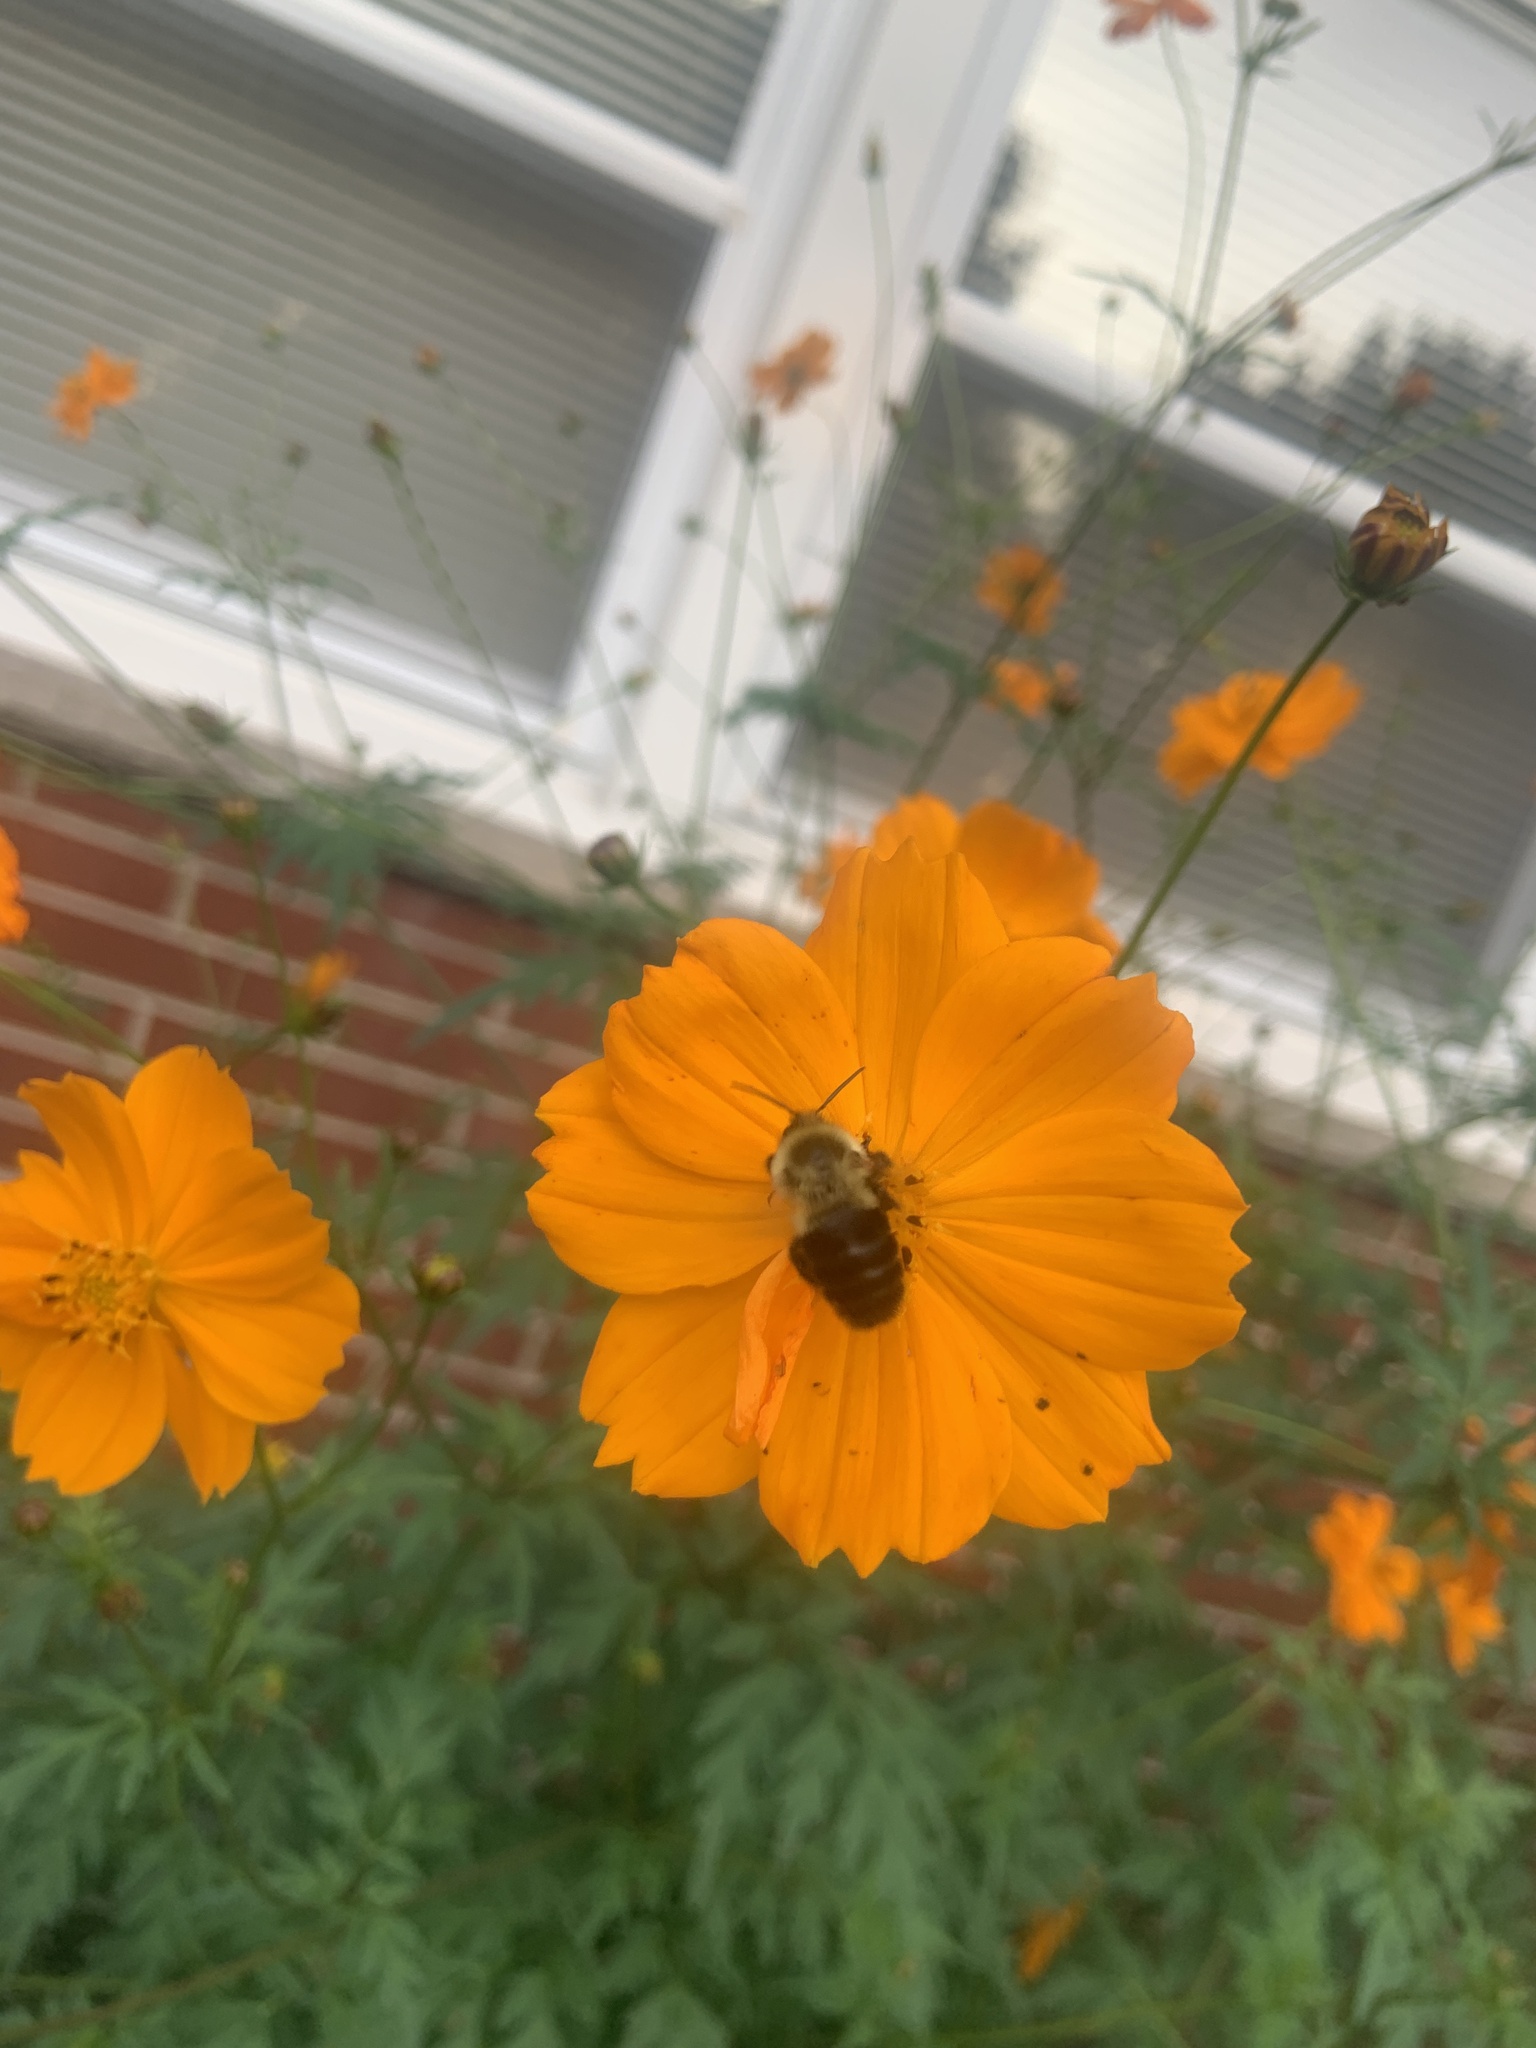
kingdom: Animalia
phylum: Arthropoda
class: Insecta
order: Hymenoptera
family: Apidae
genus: Bombus
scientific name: Bombus impatiens
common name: Common eastern bumble bee
